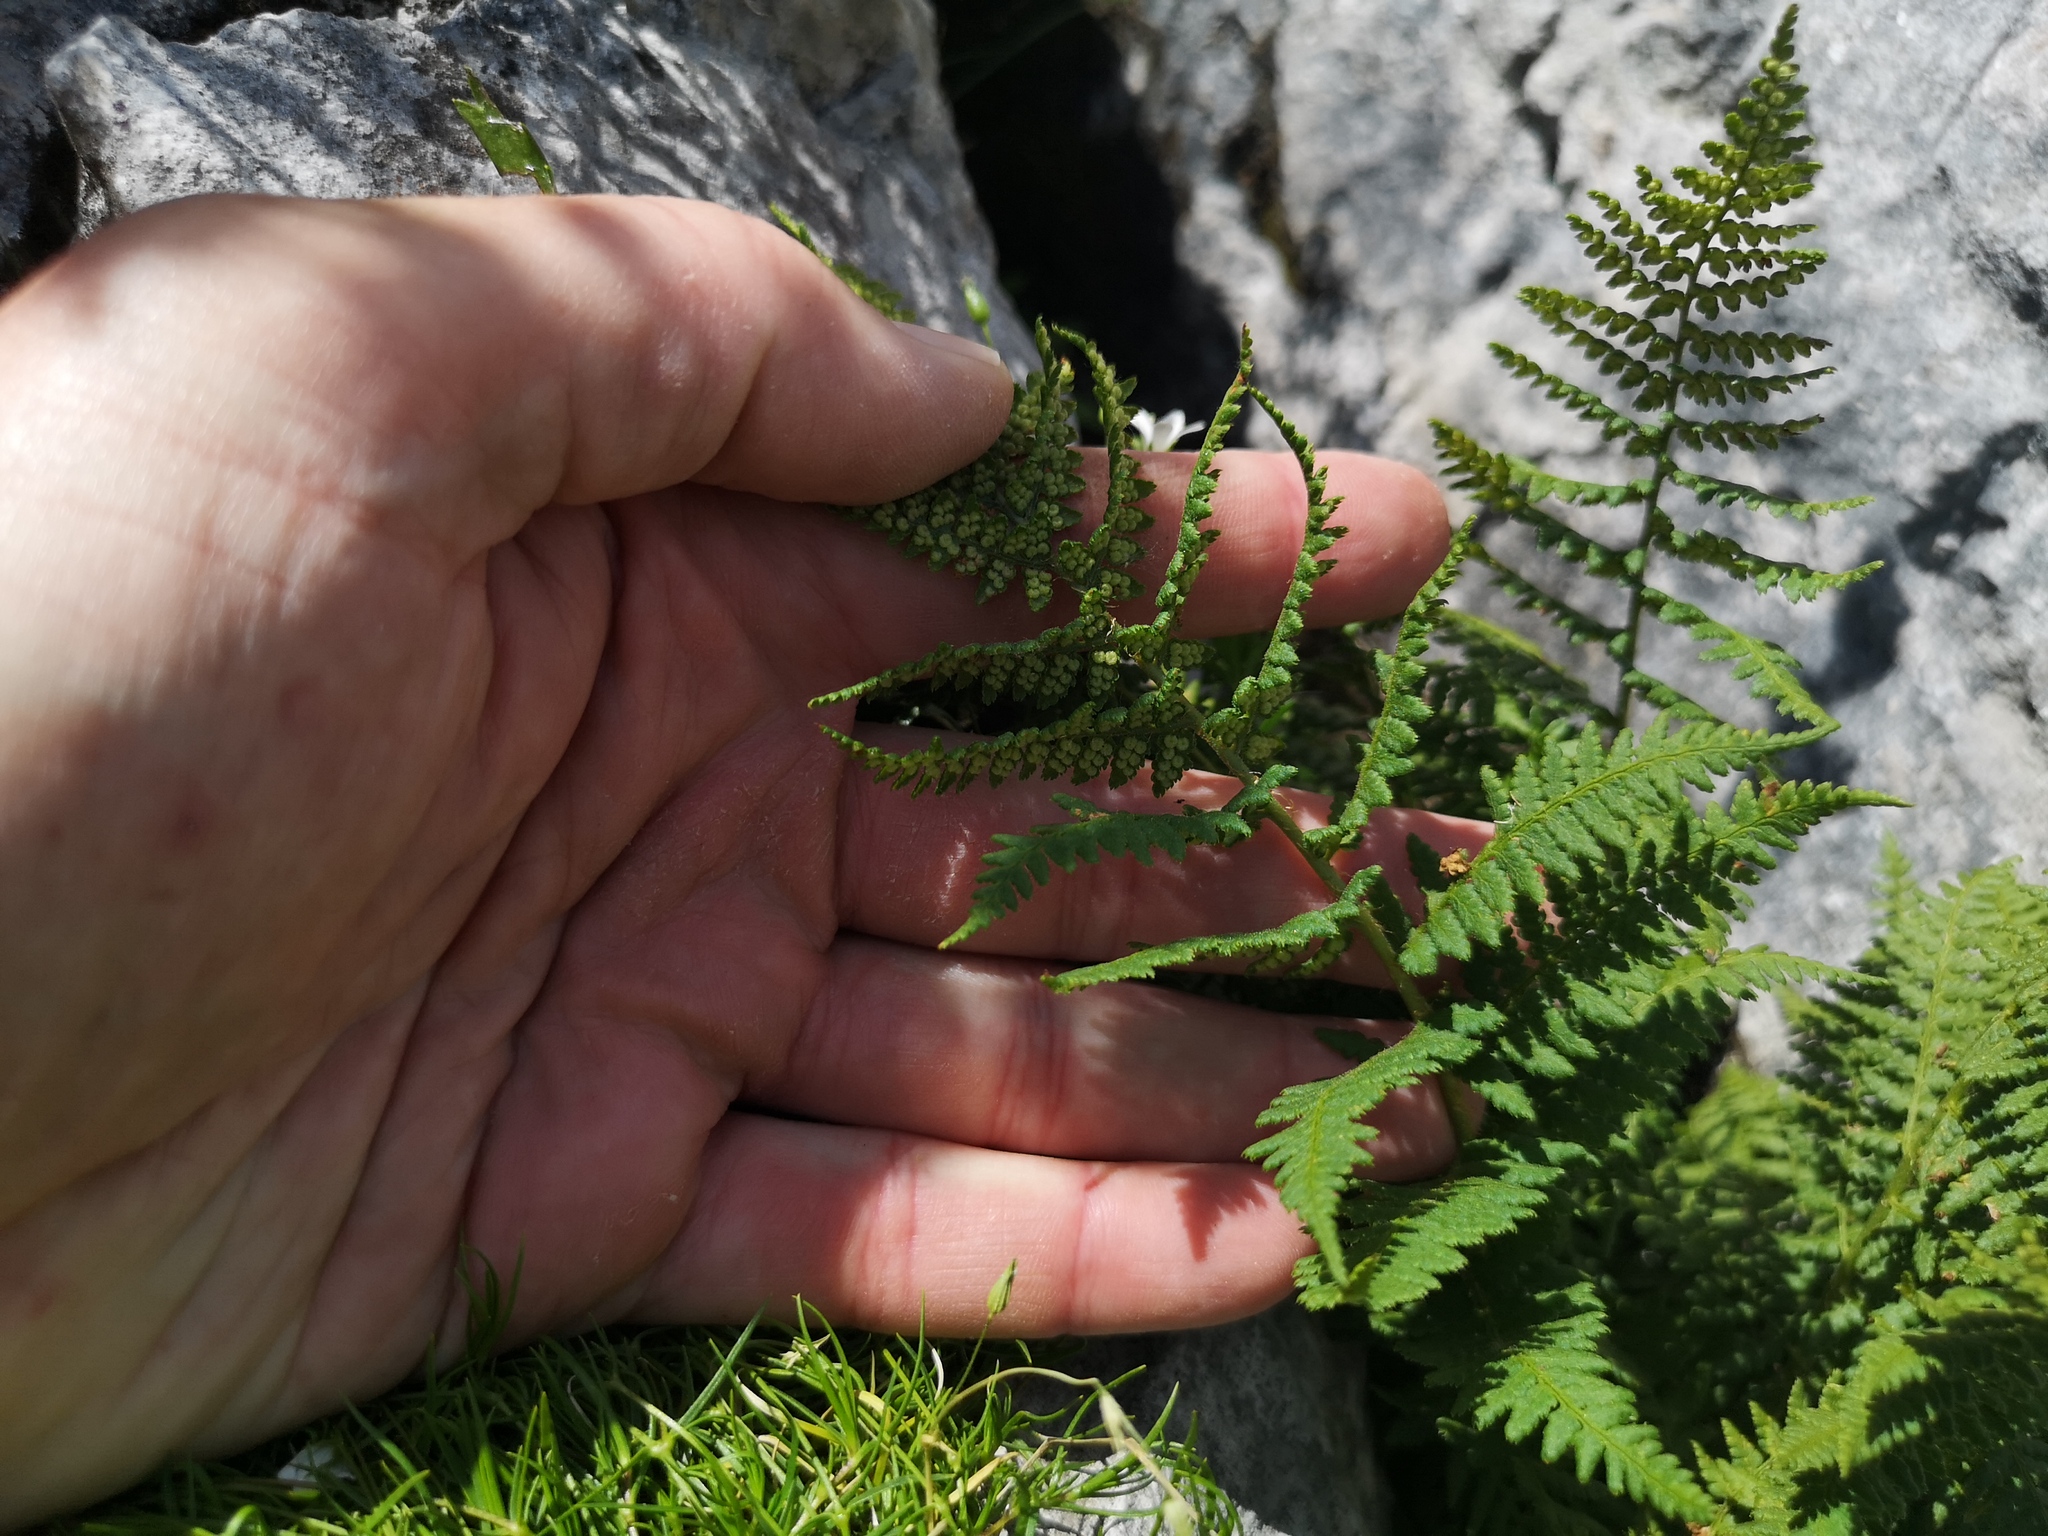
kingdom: Plantae
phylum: Tracheophyta
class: Polypodiopsida
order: Polypodiales
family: Dryopteridaceae
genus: Dryopteris
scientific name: Dryopteris villarii
